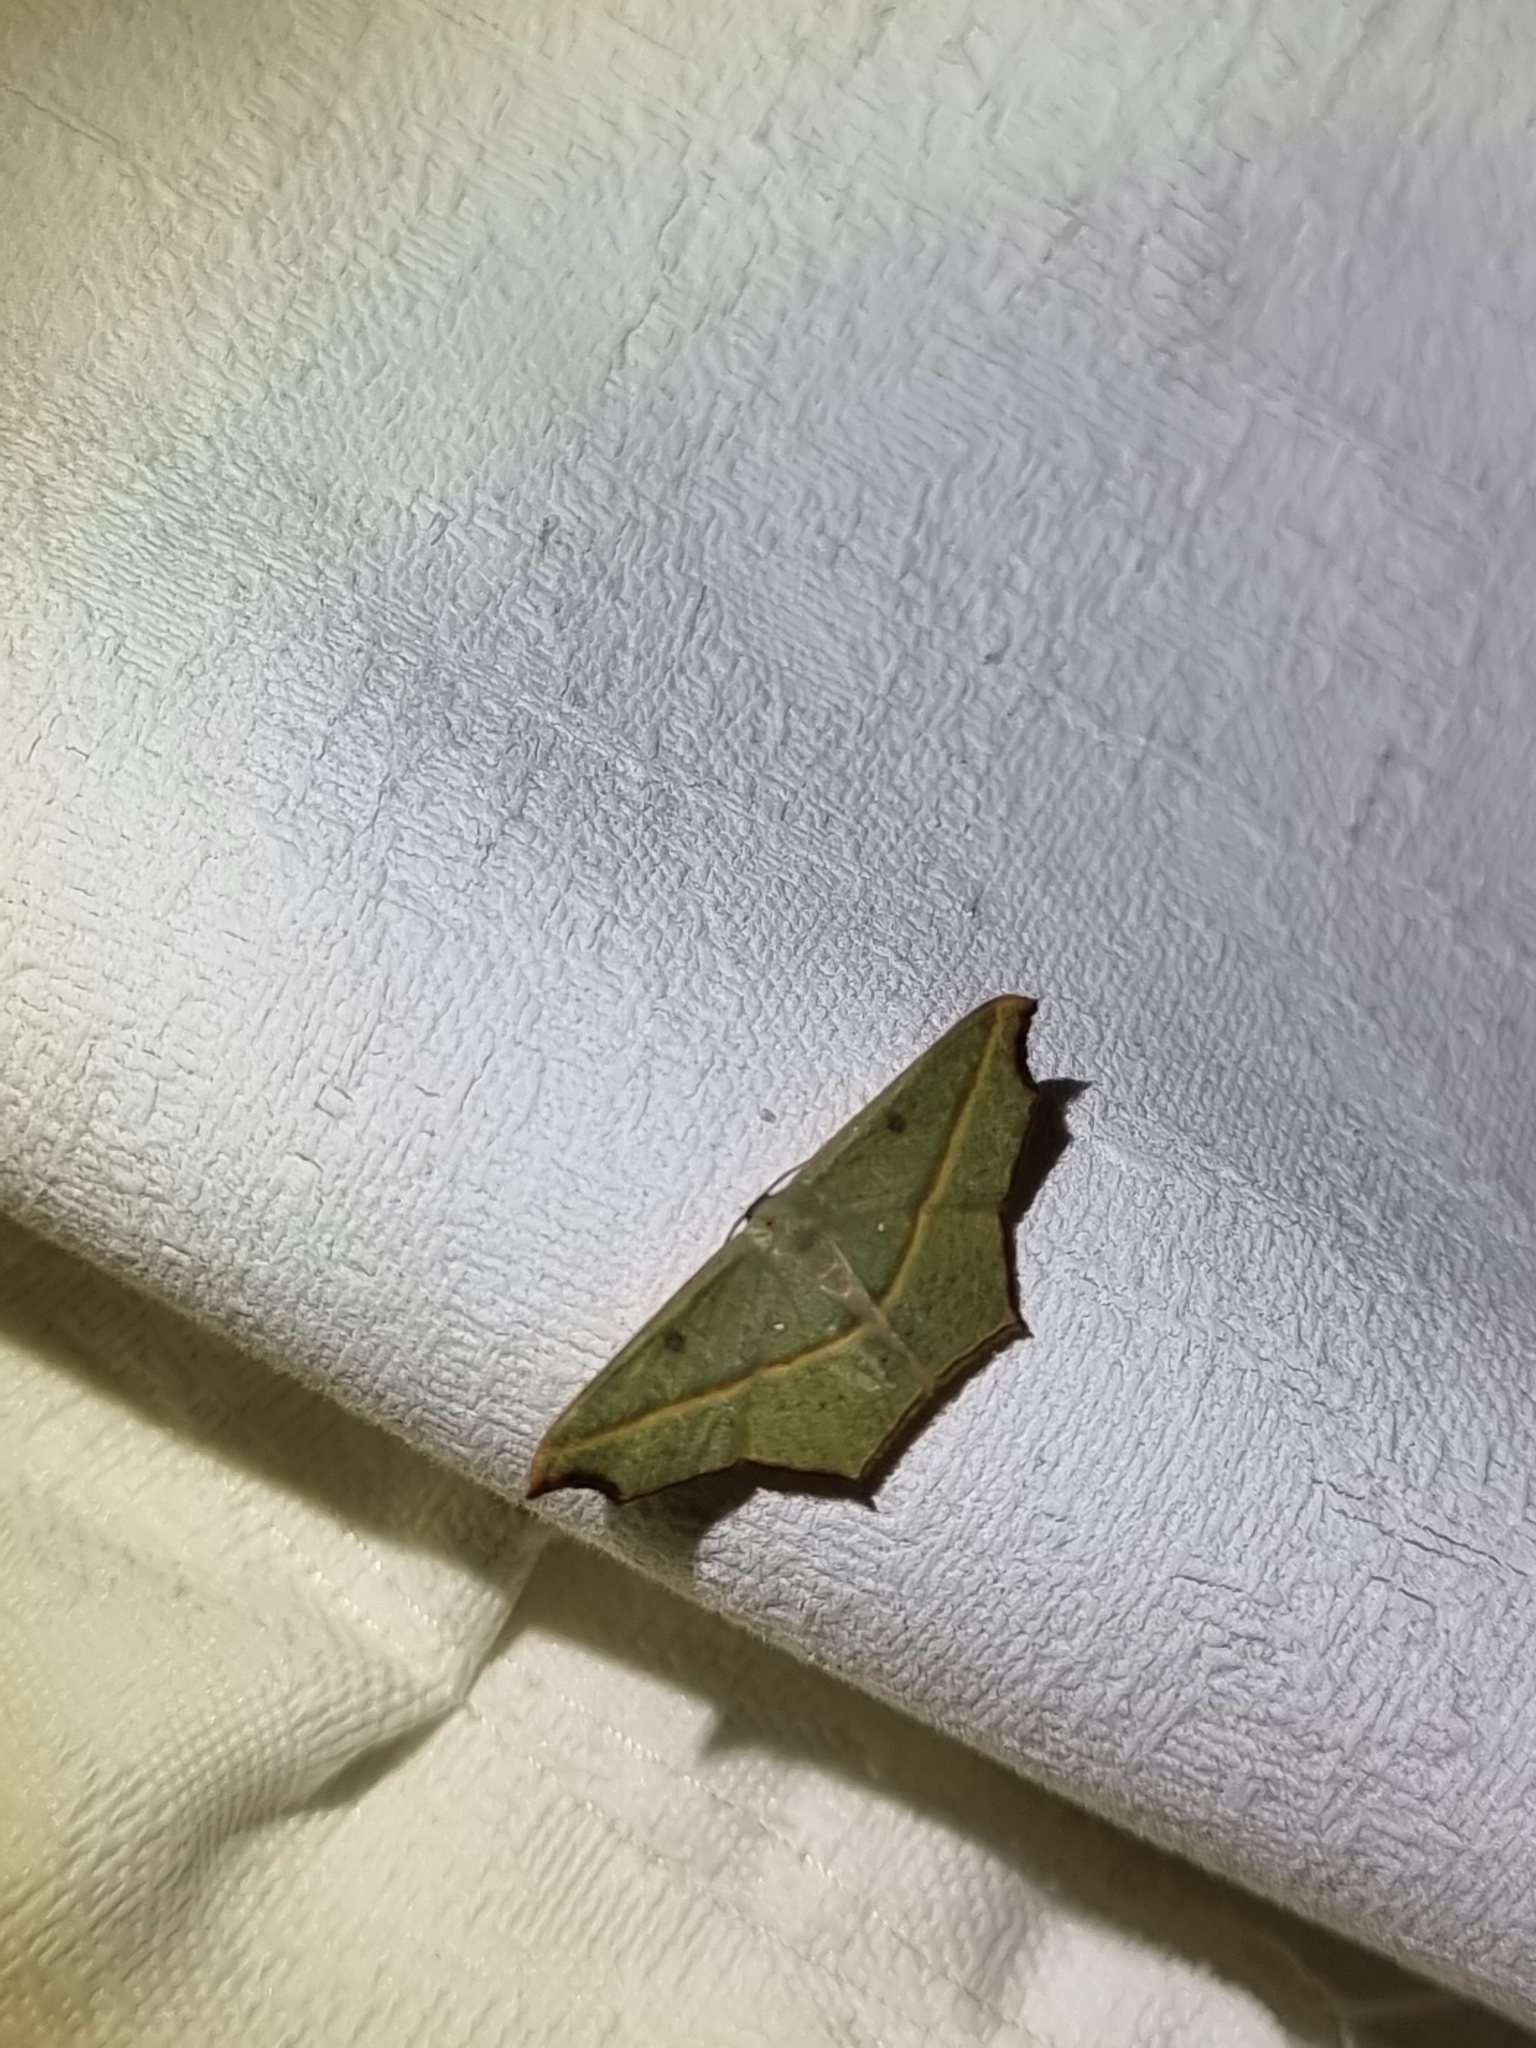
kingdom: Animalia
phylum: Arthropoda
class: Insecta
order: Lepidoptera
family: Geometridae
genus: Traminda
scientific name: Traminda aventiaria
